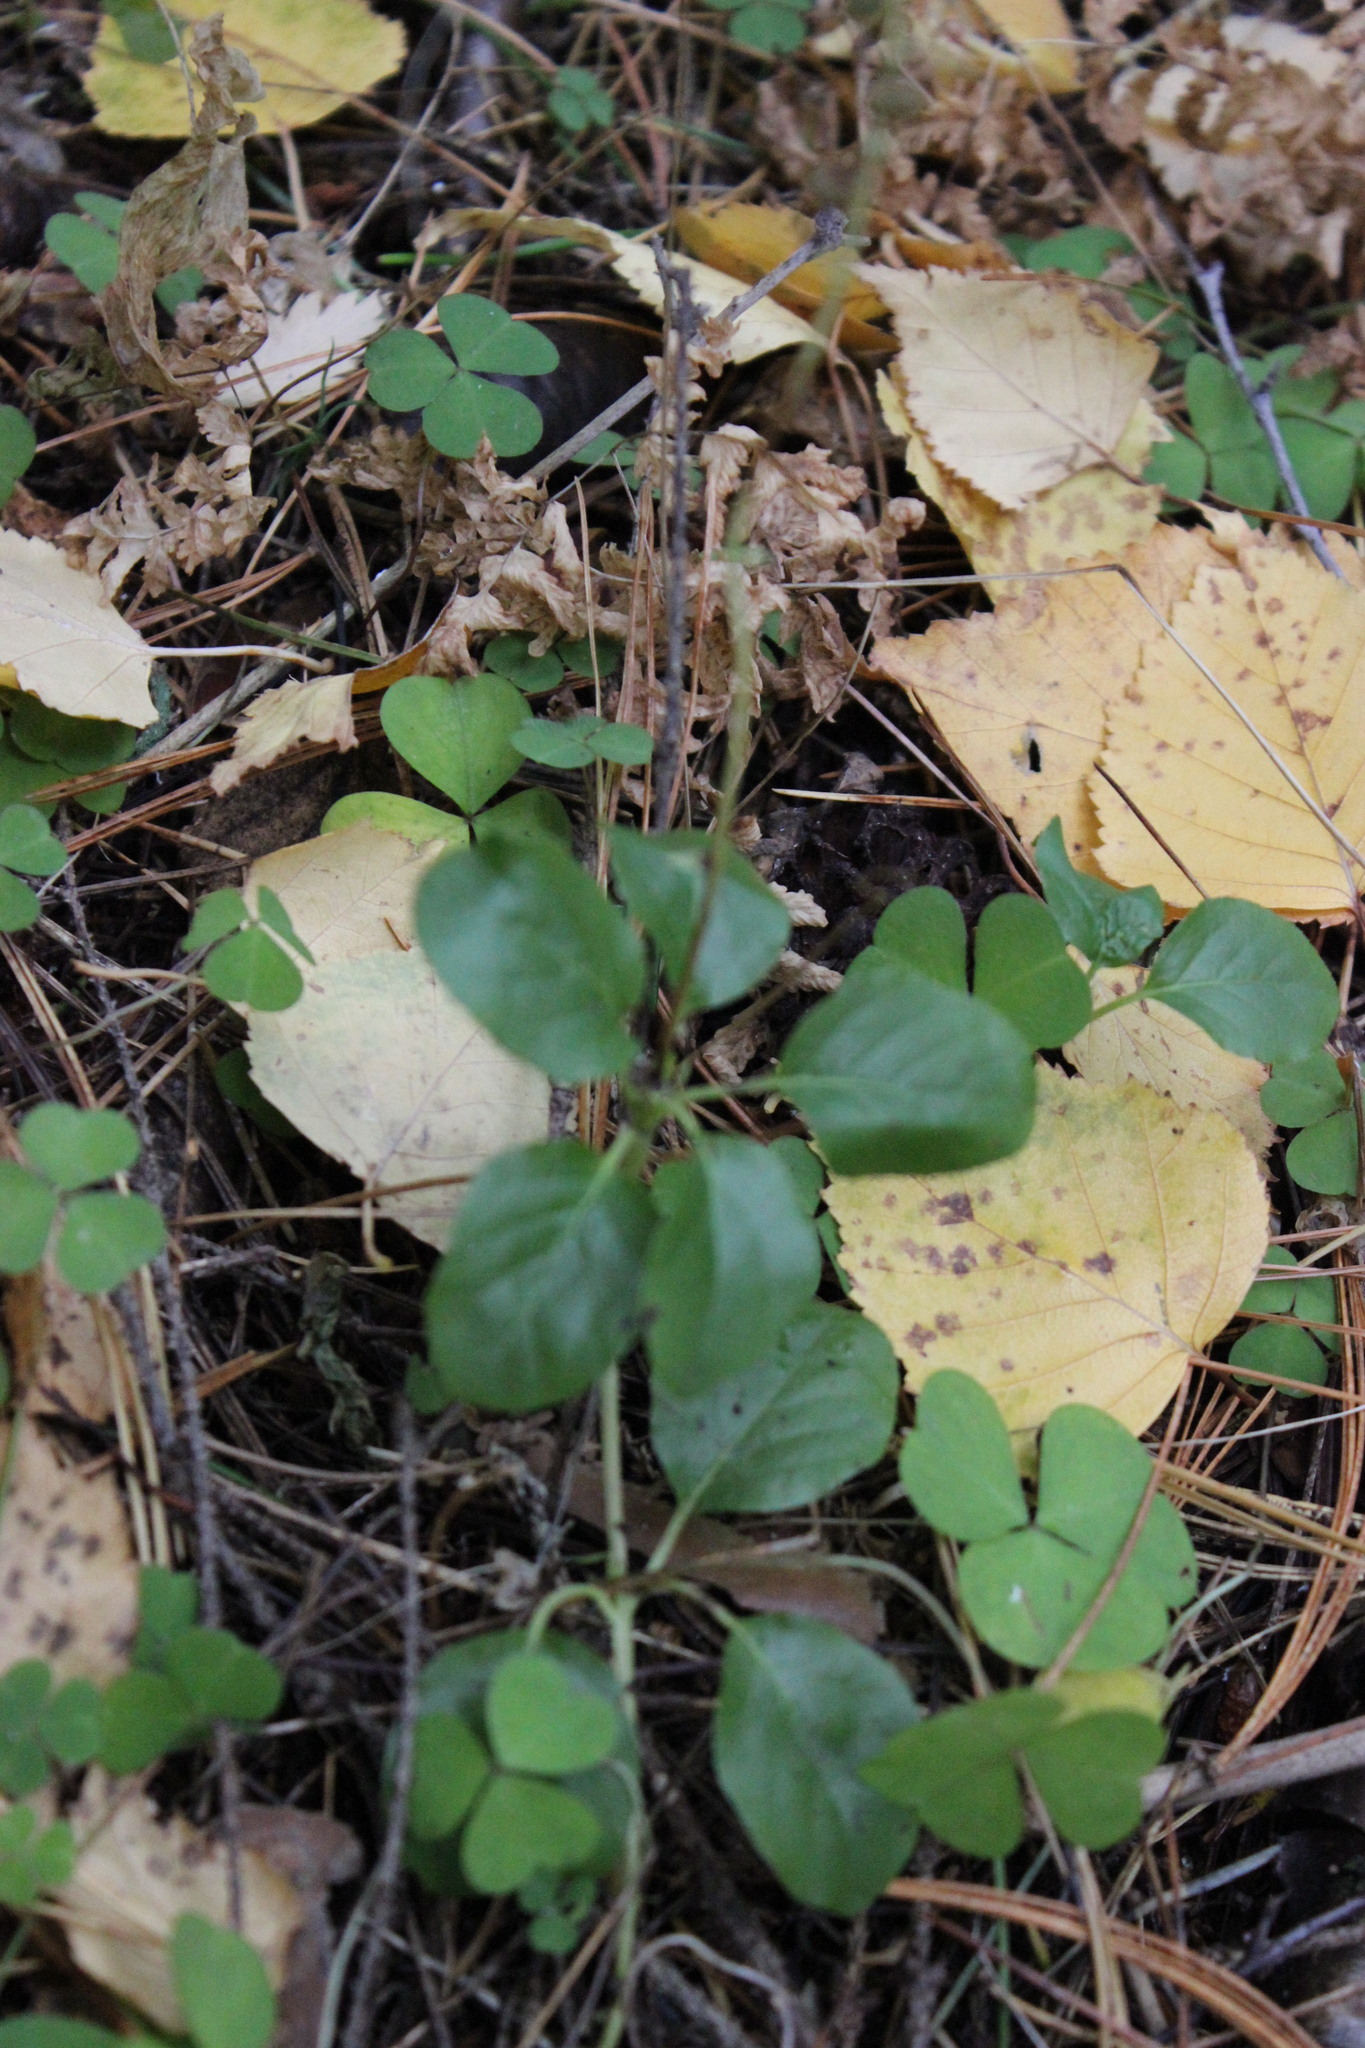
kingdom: Plantae
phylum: Tracheophyta
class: Magnoliopsida
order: Ericales
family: Ericaceae
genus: Orthilia
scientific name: Orthilia secunda
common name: One-sided orthilia
